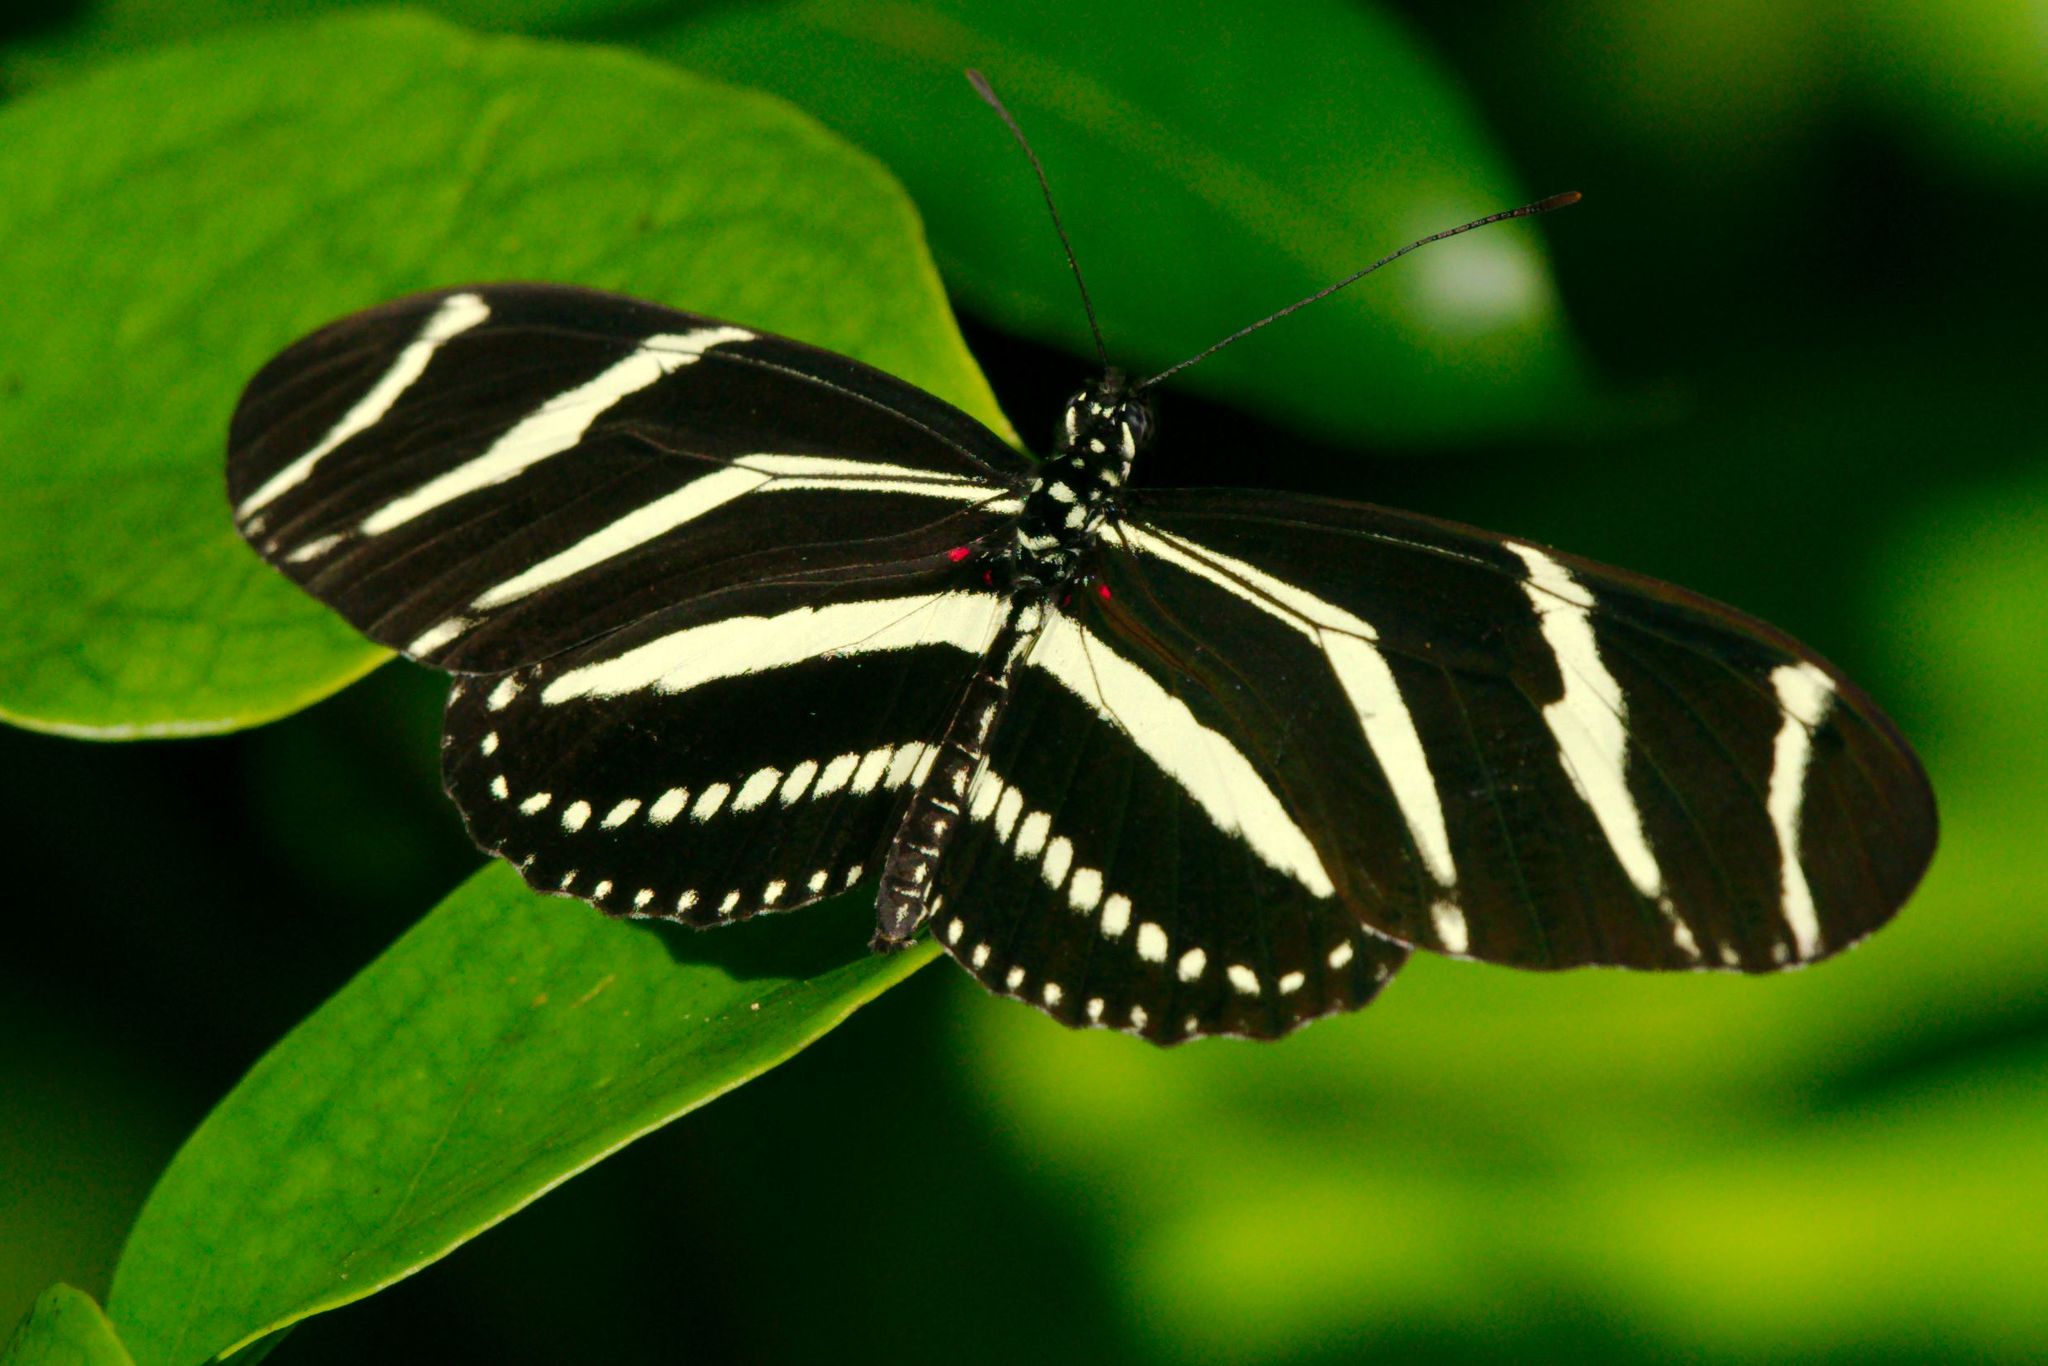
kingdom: Animalia
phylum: Arthropoda
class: Insecta
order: Lepidoptera
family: Nymphalidae
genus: Heliconius
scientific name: Heliconius charithonia
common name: Zebra long wing
